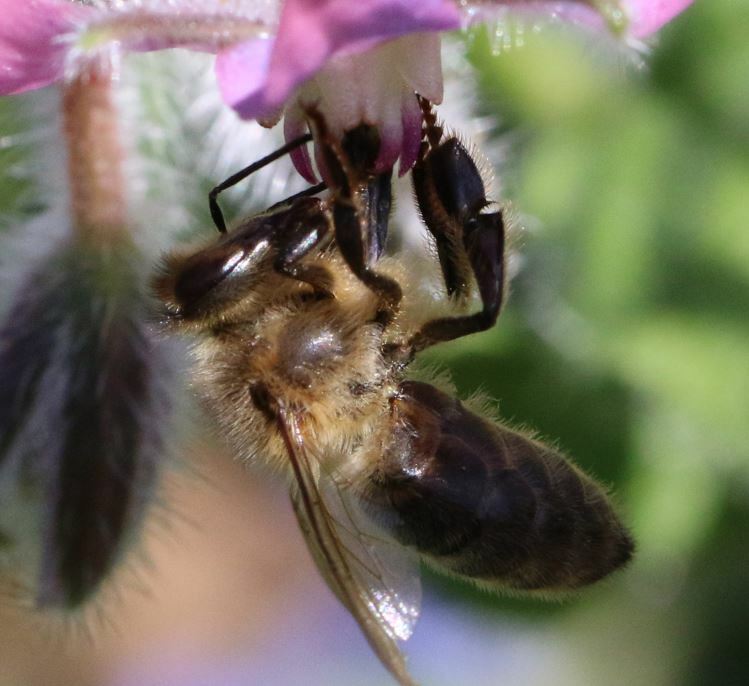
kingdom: Animalia
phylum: Arthropoda
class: Insecta
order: Hymenoptera
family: Apidae
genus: Apis
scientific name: Apis mellifera
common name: Honey bee
